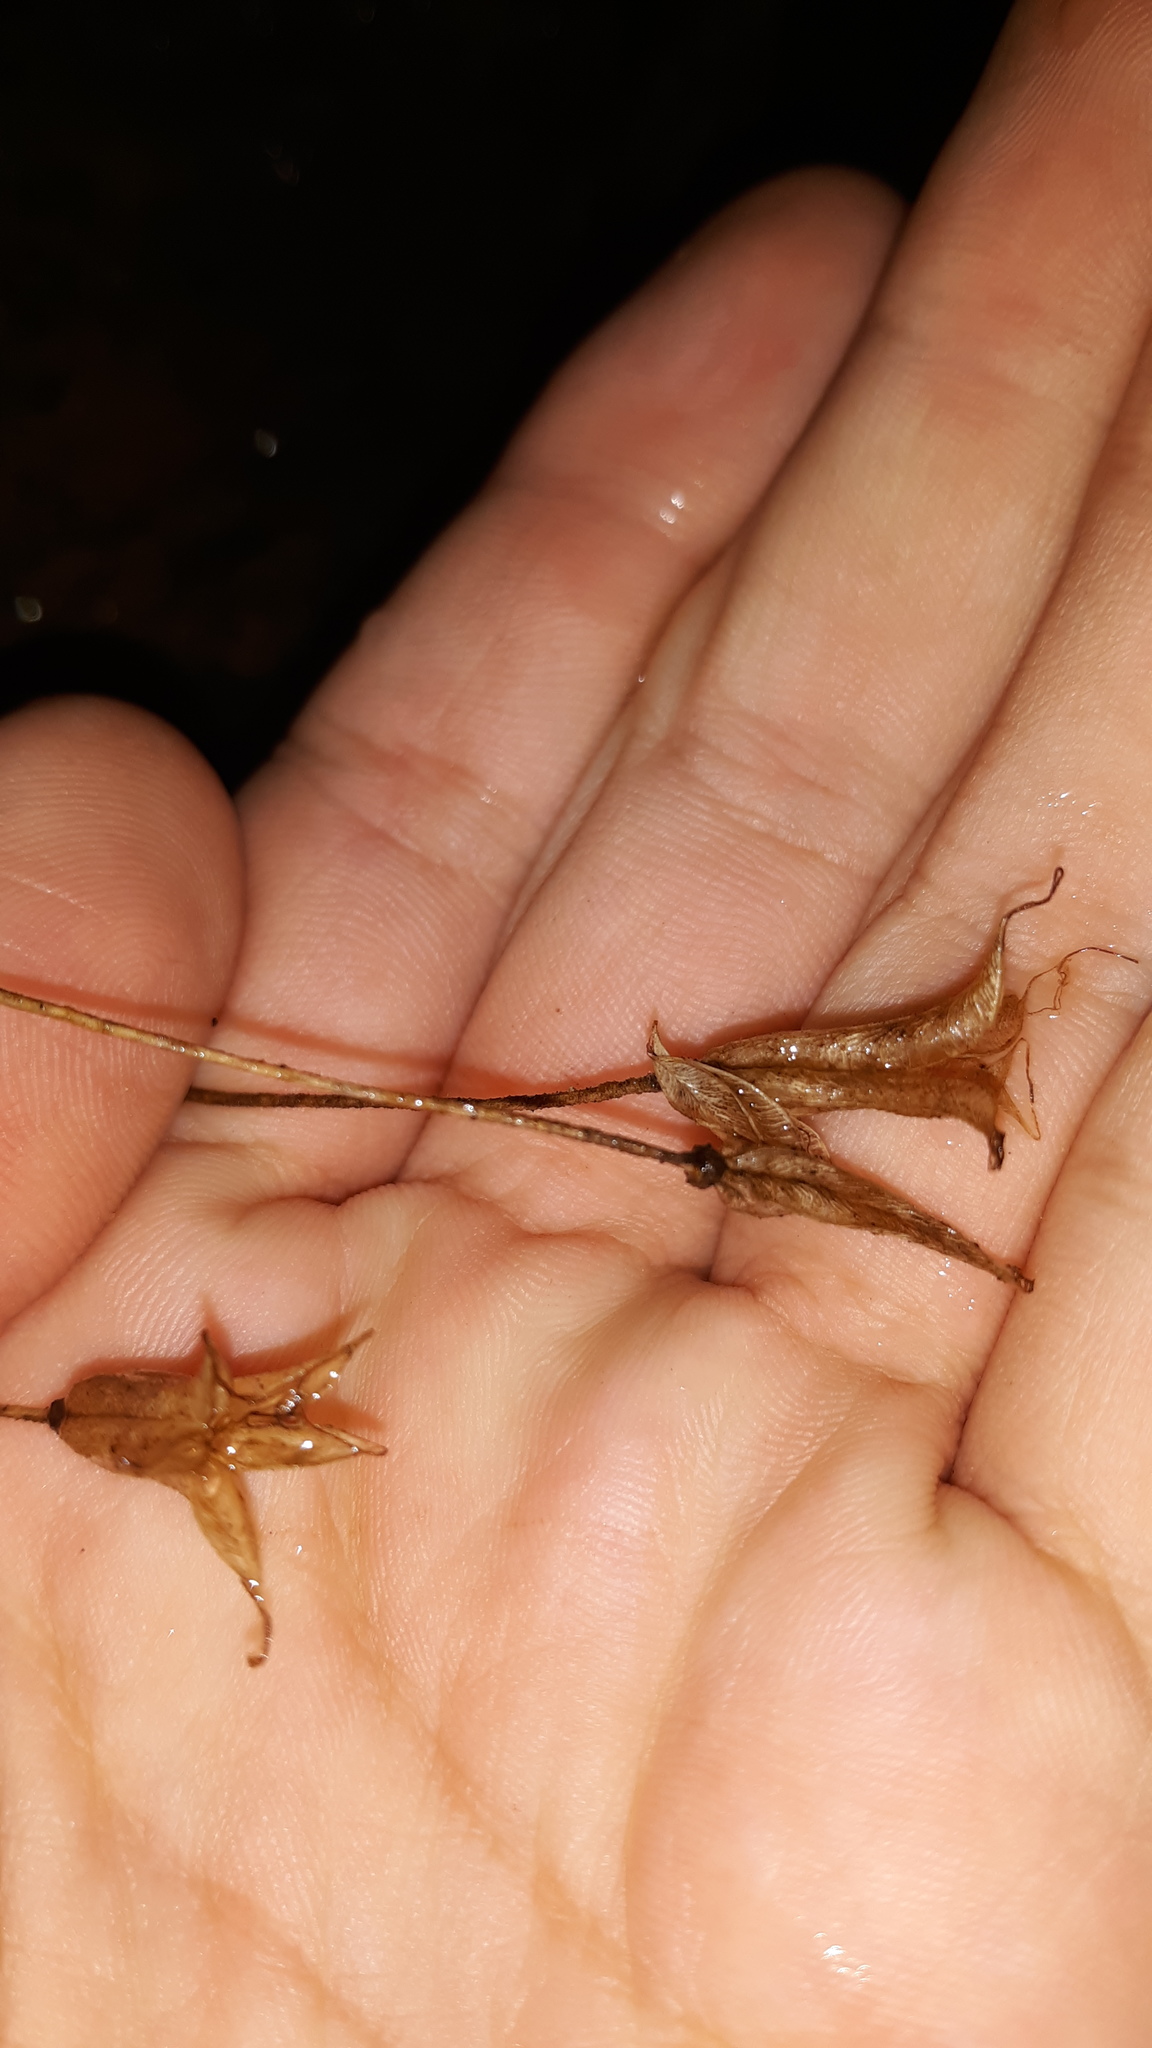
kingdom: Plantae
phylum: Tracheophyta
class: Magnoliopsida
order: Ranunculales
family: Ranunculaceae
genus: Aquilegia
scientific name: Aquilegia canadensis
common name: American columbine
